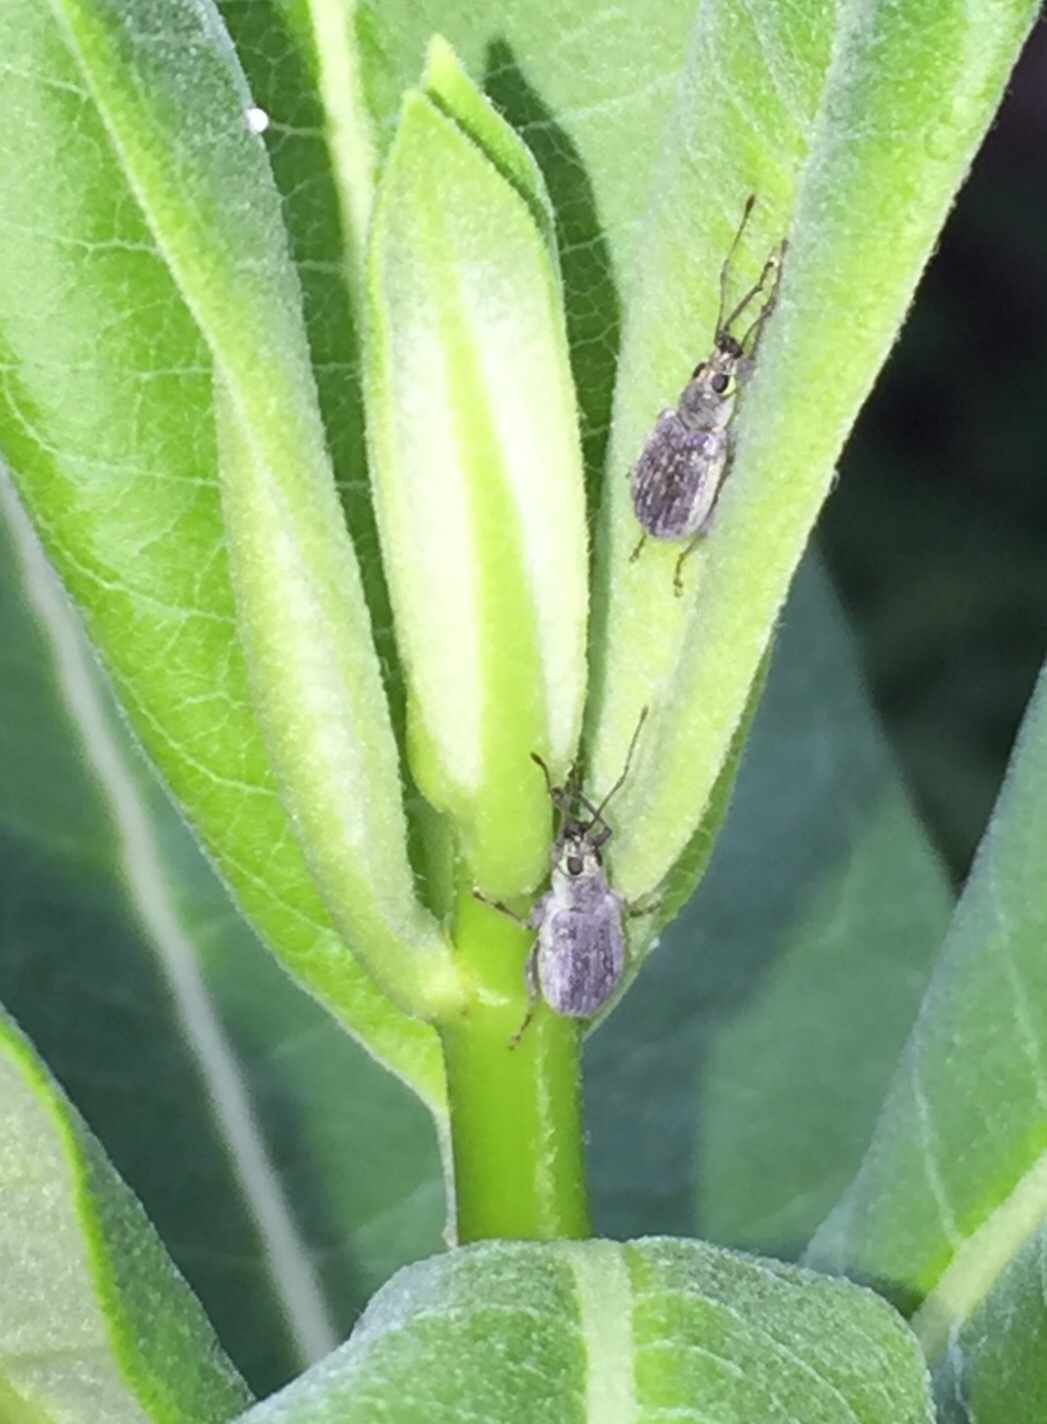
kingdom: Animalia
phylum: Arthropoda
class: Insecta
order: Coleoptera
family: Curculionidae
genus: Cyrtepistomus
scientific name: Cyrtepistomus castaneus
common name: Weevil
